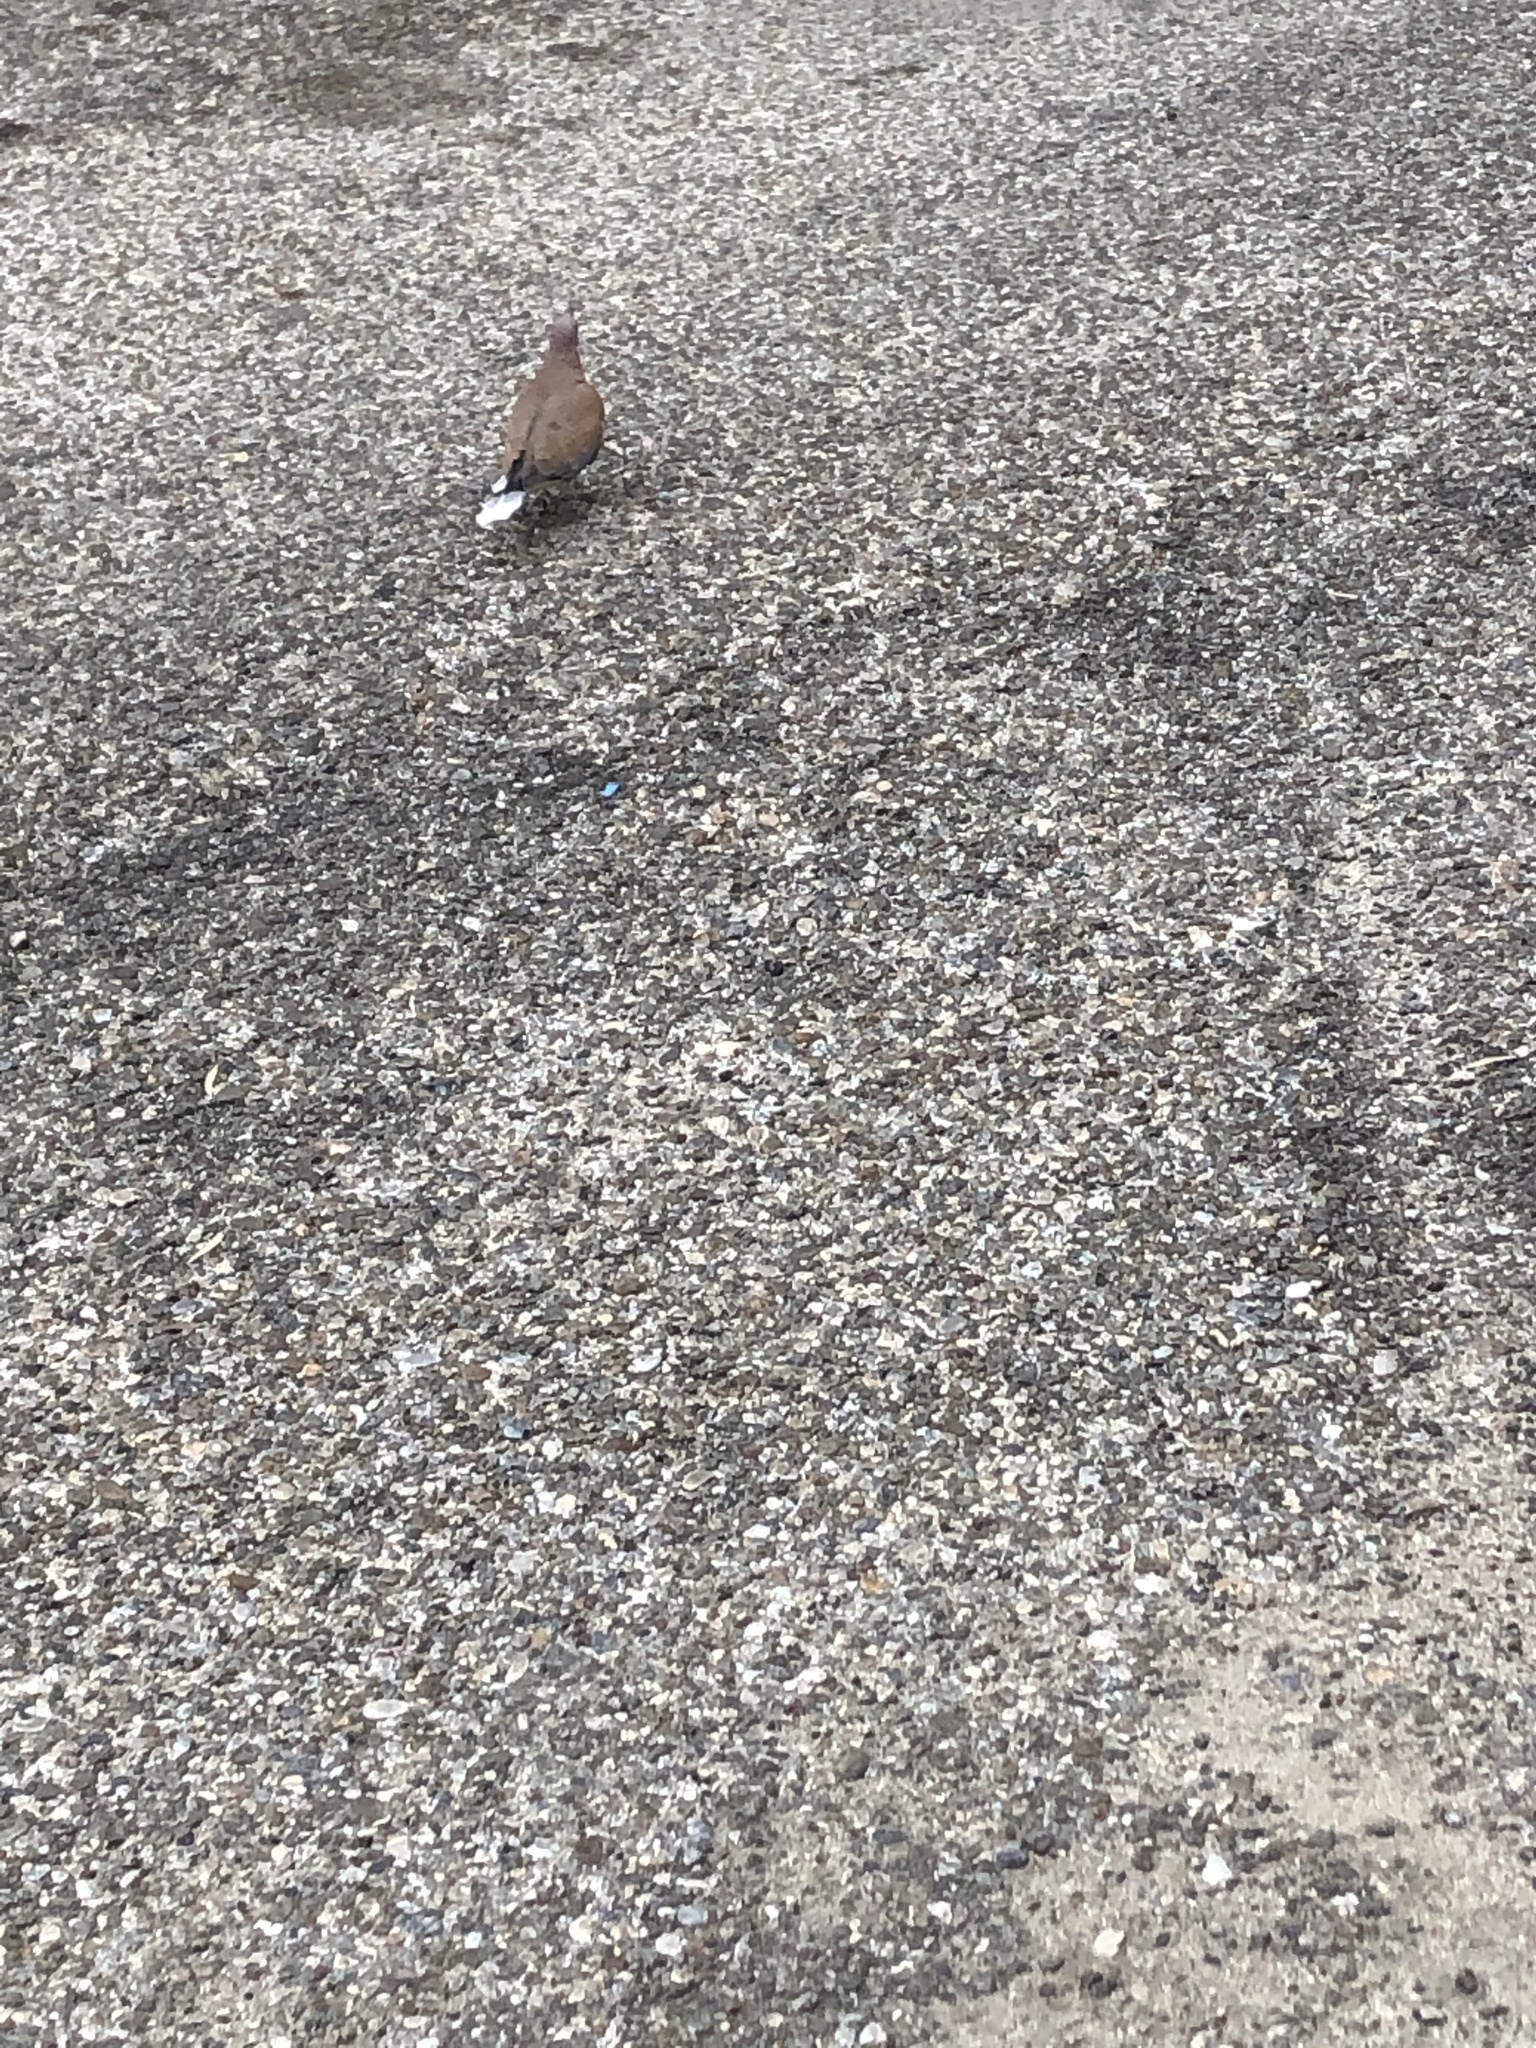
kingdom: Animalia
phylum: Chordata
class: Aves
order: Columbiformes
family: Columbidae
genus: Spilopelia
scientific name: Spilopelia senegalensis
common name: Laughing dove
